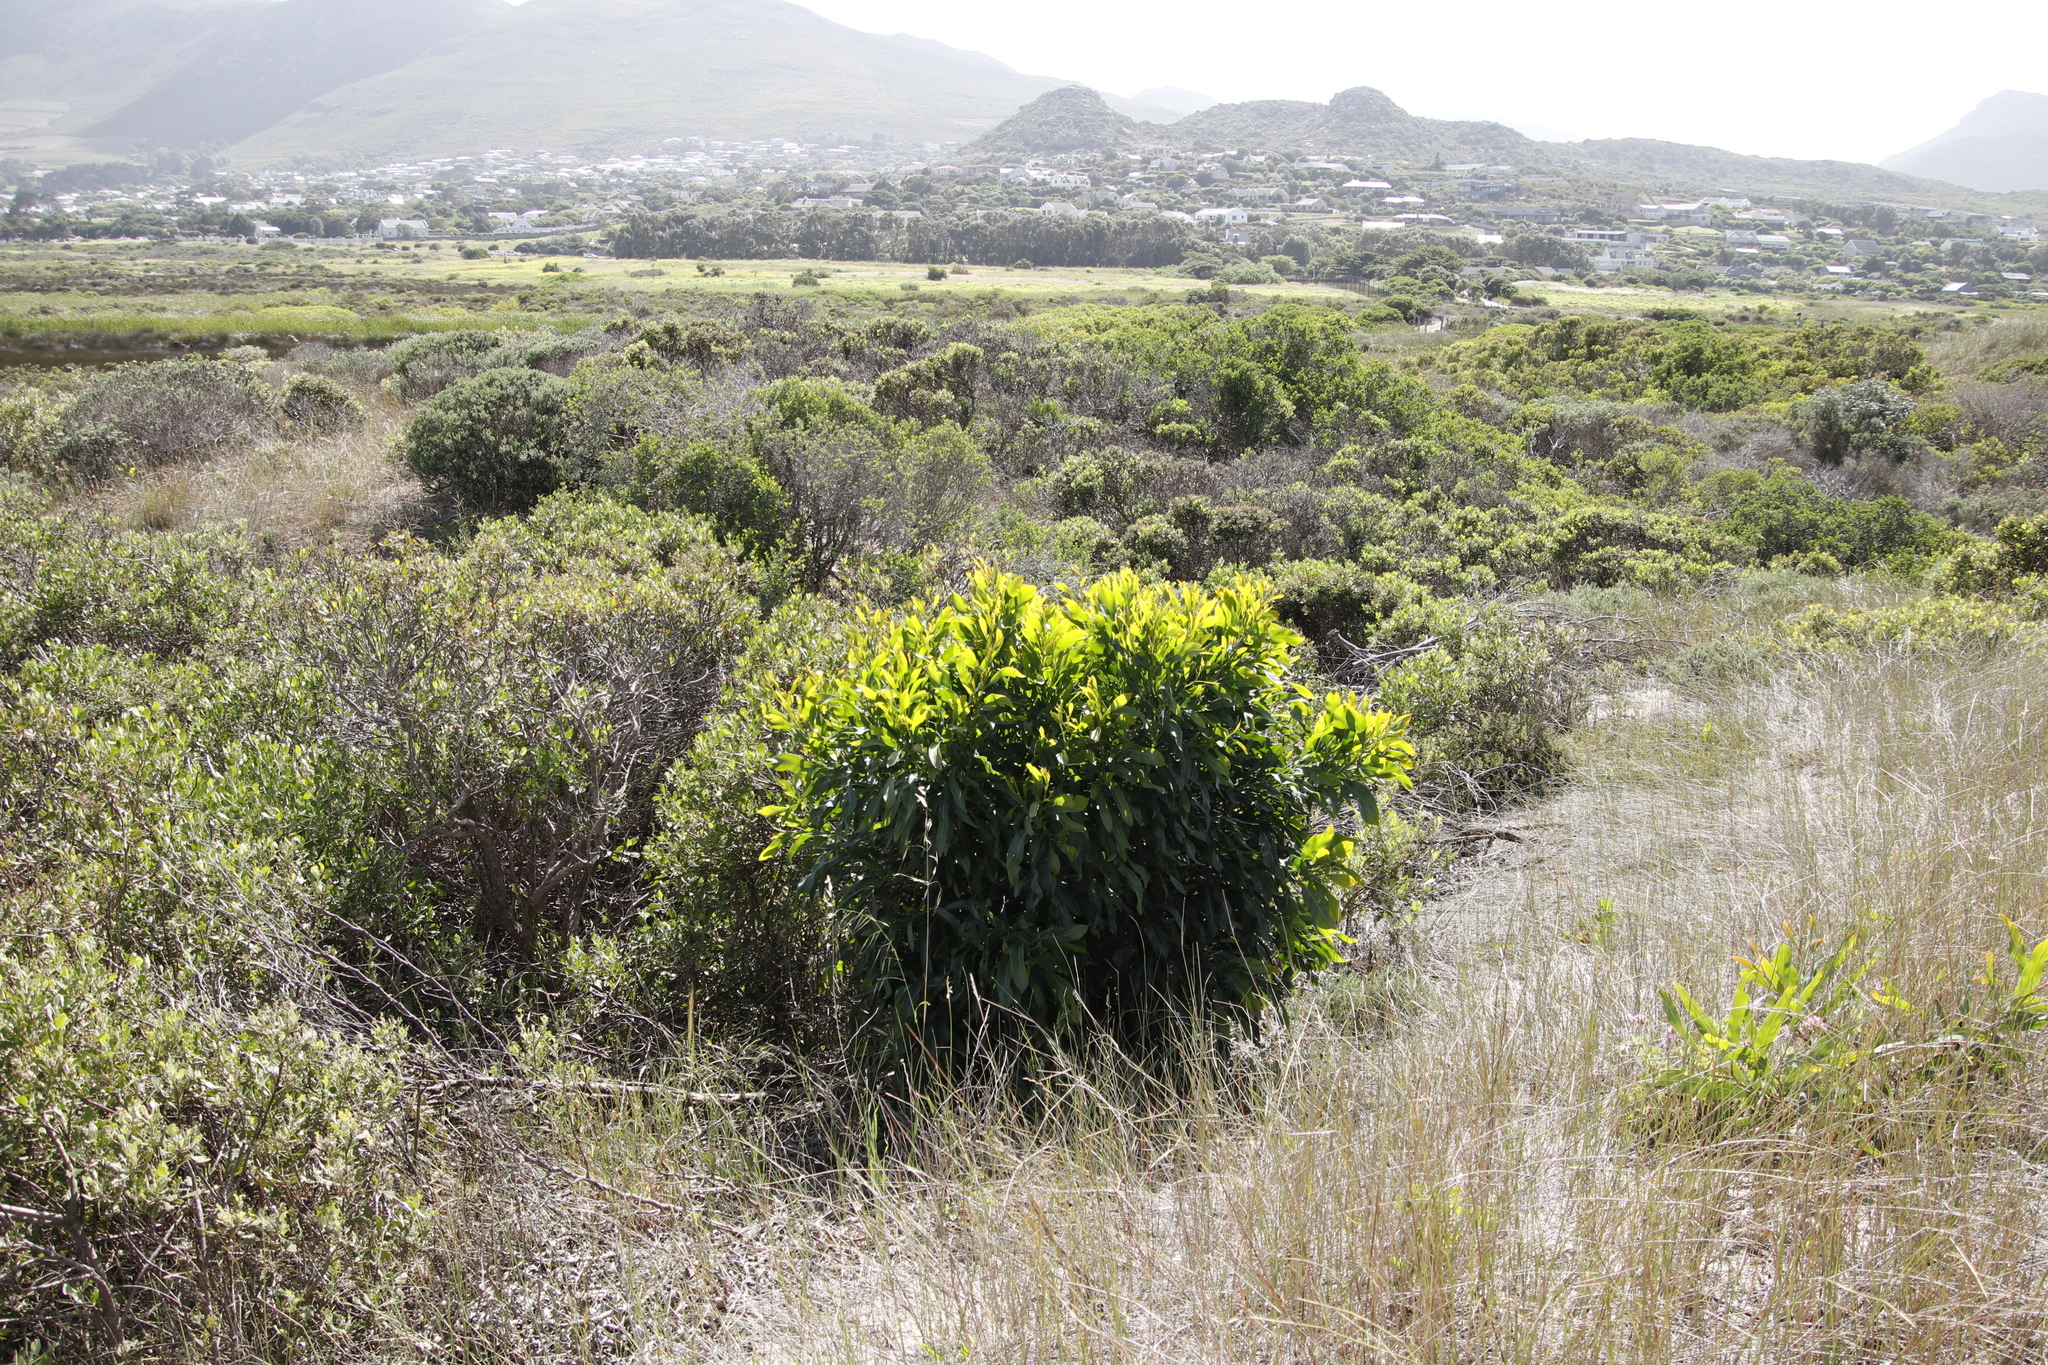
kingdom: Plantae
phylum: Tracheophyta
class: Magnoliopsida
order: Fabales
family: Fabaceae
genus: Acacia
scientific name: Acacia saligna
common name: Orange wattle
